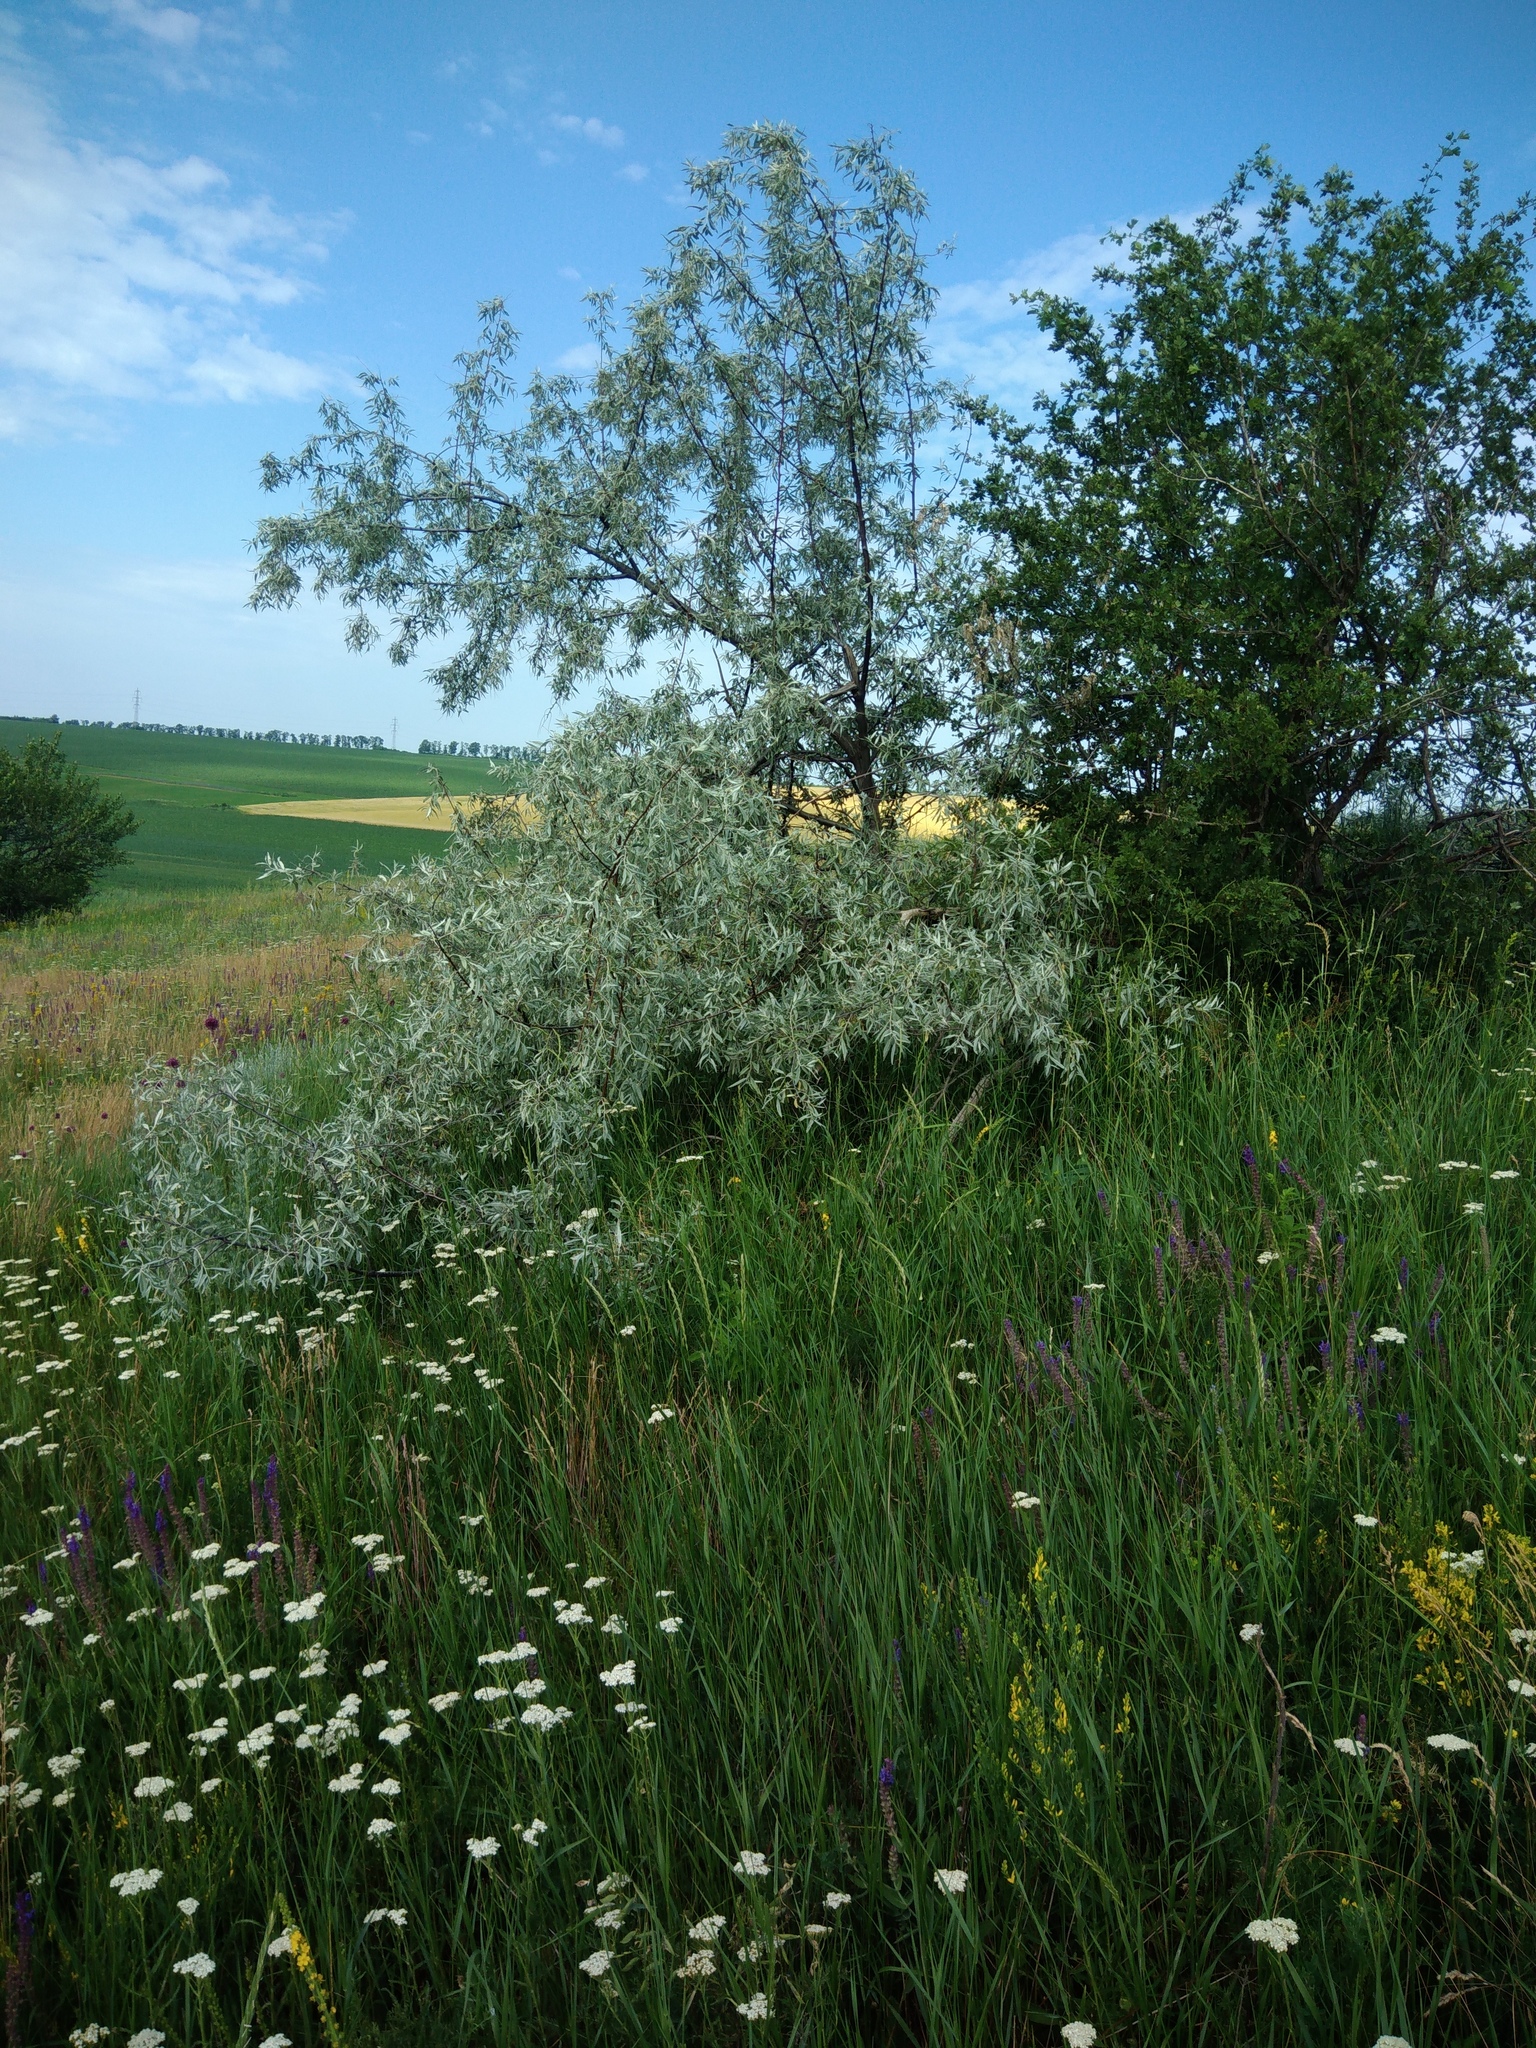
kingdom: Plantae
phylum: Tracheophyta
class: Magnoliopsida
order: Rosales
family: Elaeagnaceae
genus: Elaeagnus
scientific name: Elaeagnus angustifolia
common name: Russian olive
